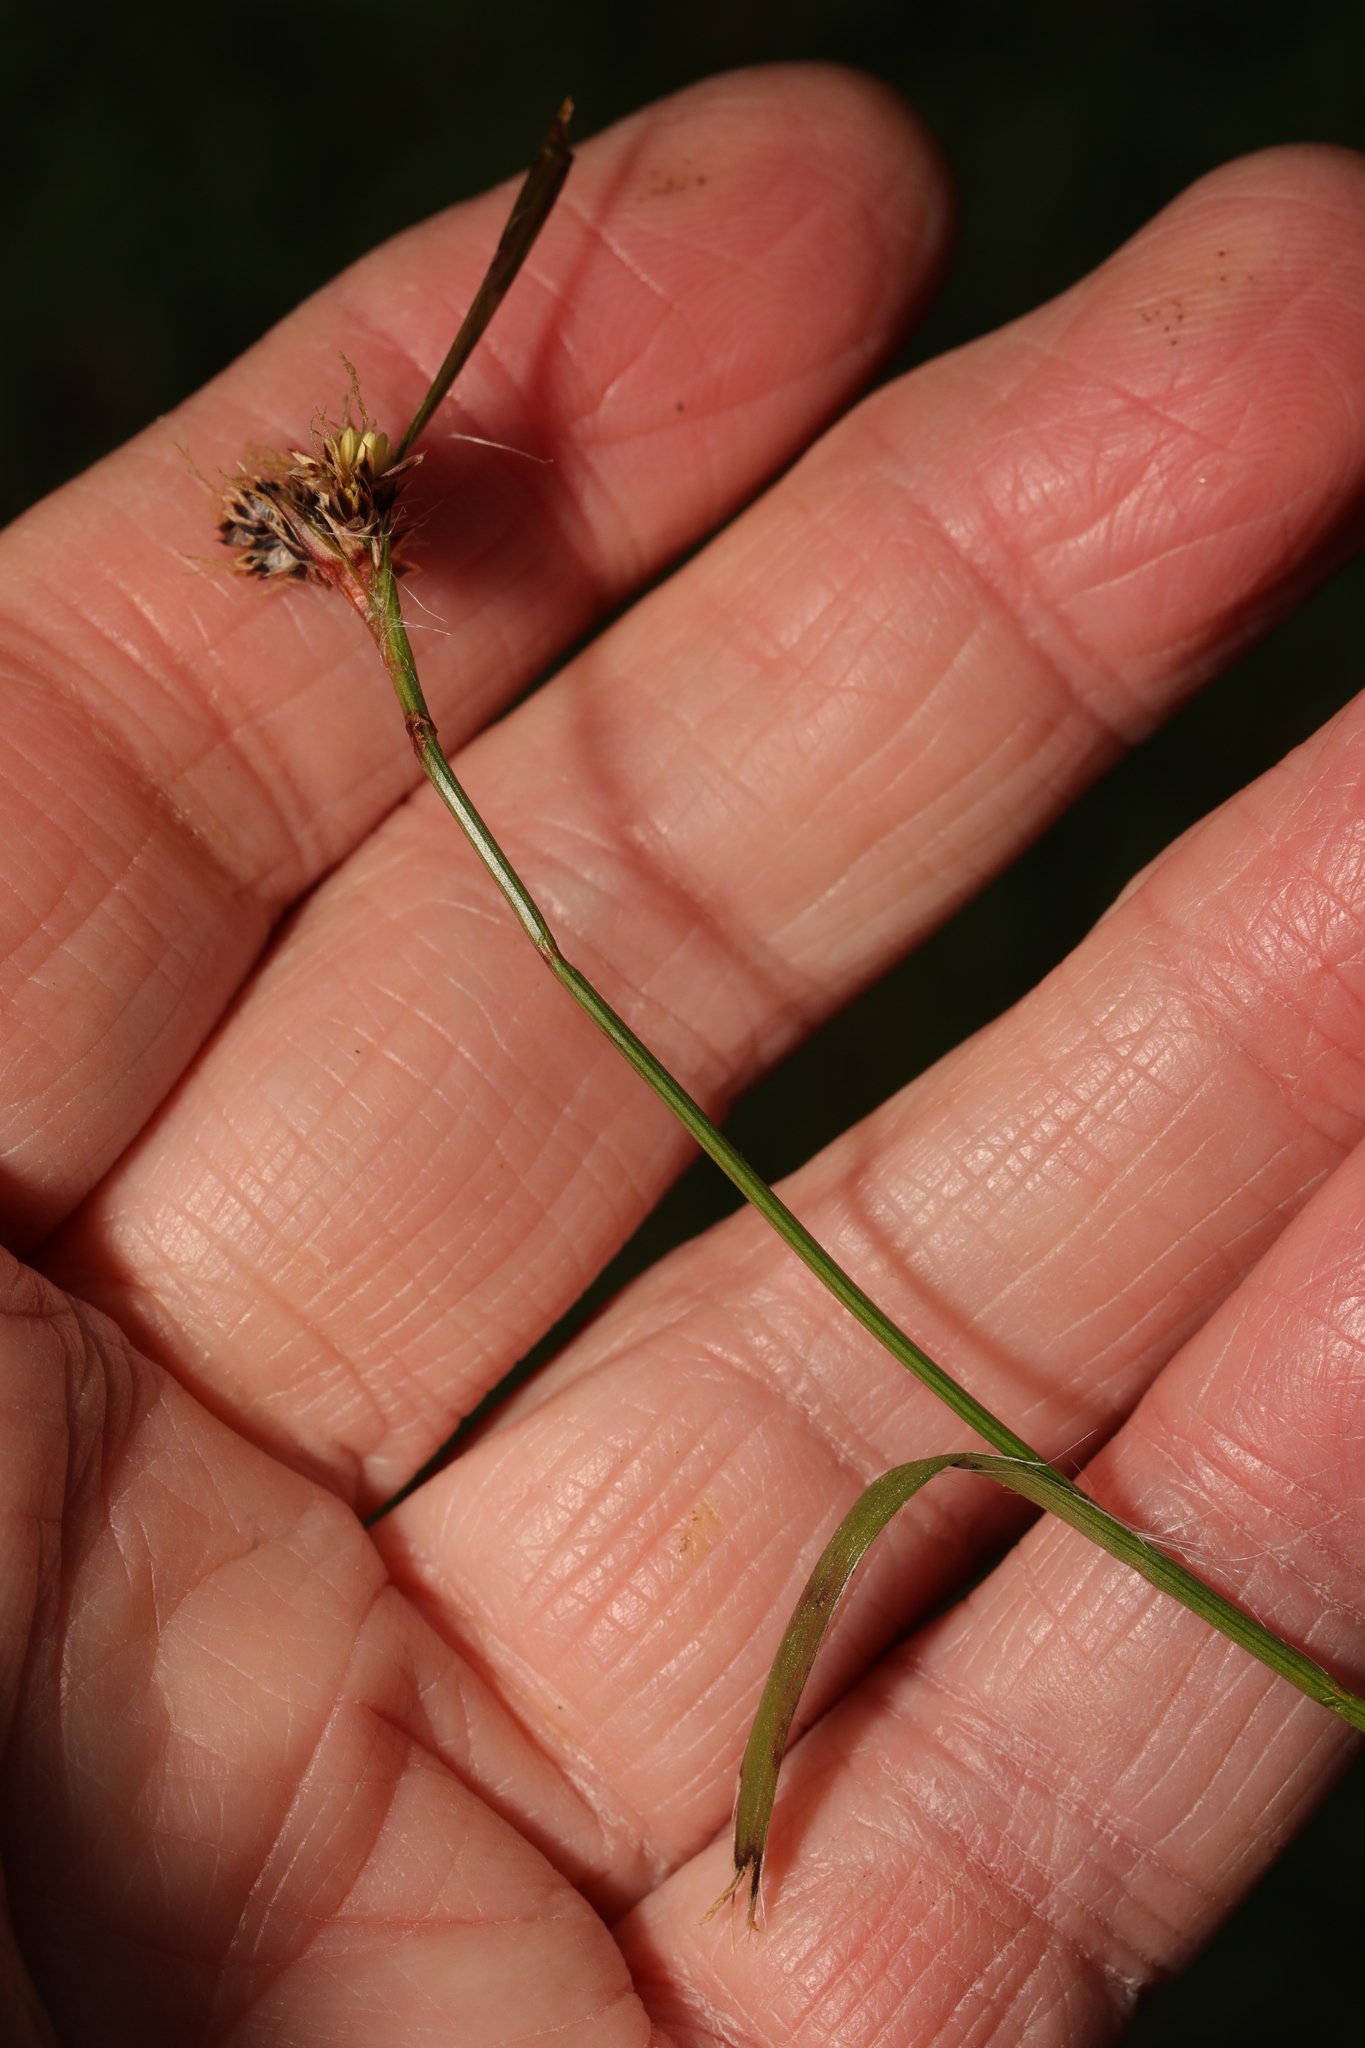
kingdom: Plantae
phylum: Tracheophyta
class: Liliopsida
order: Poales
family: Juncaceae
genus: Luzula
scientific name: Luzula campestris
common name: Field wood-rush
